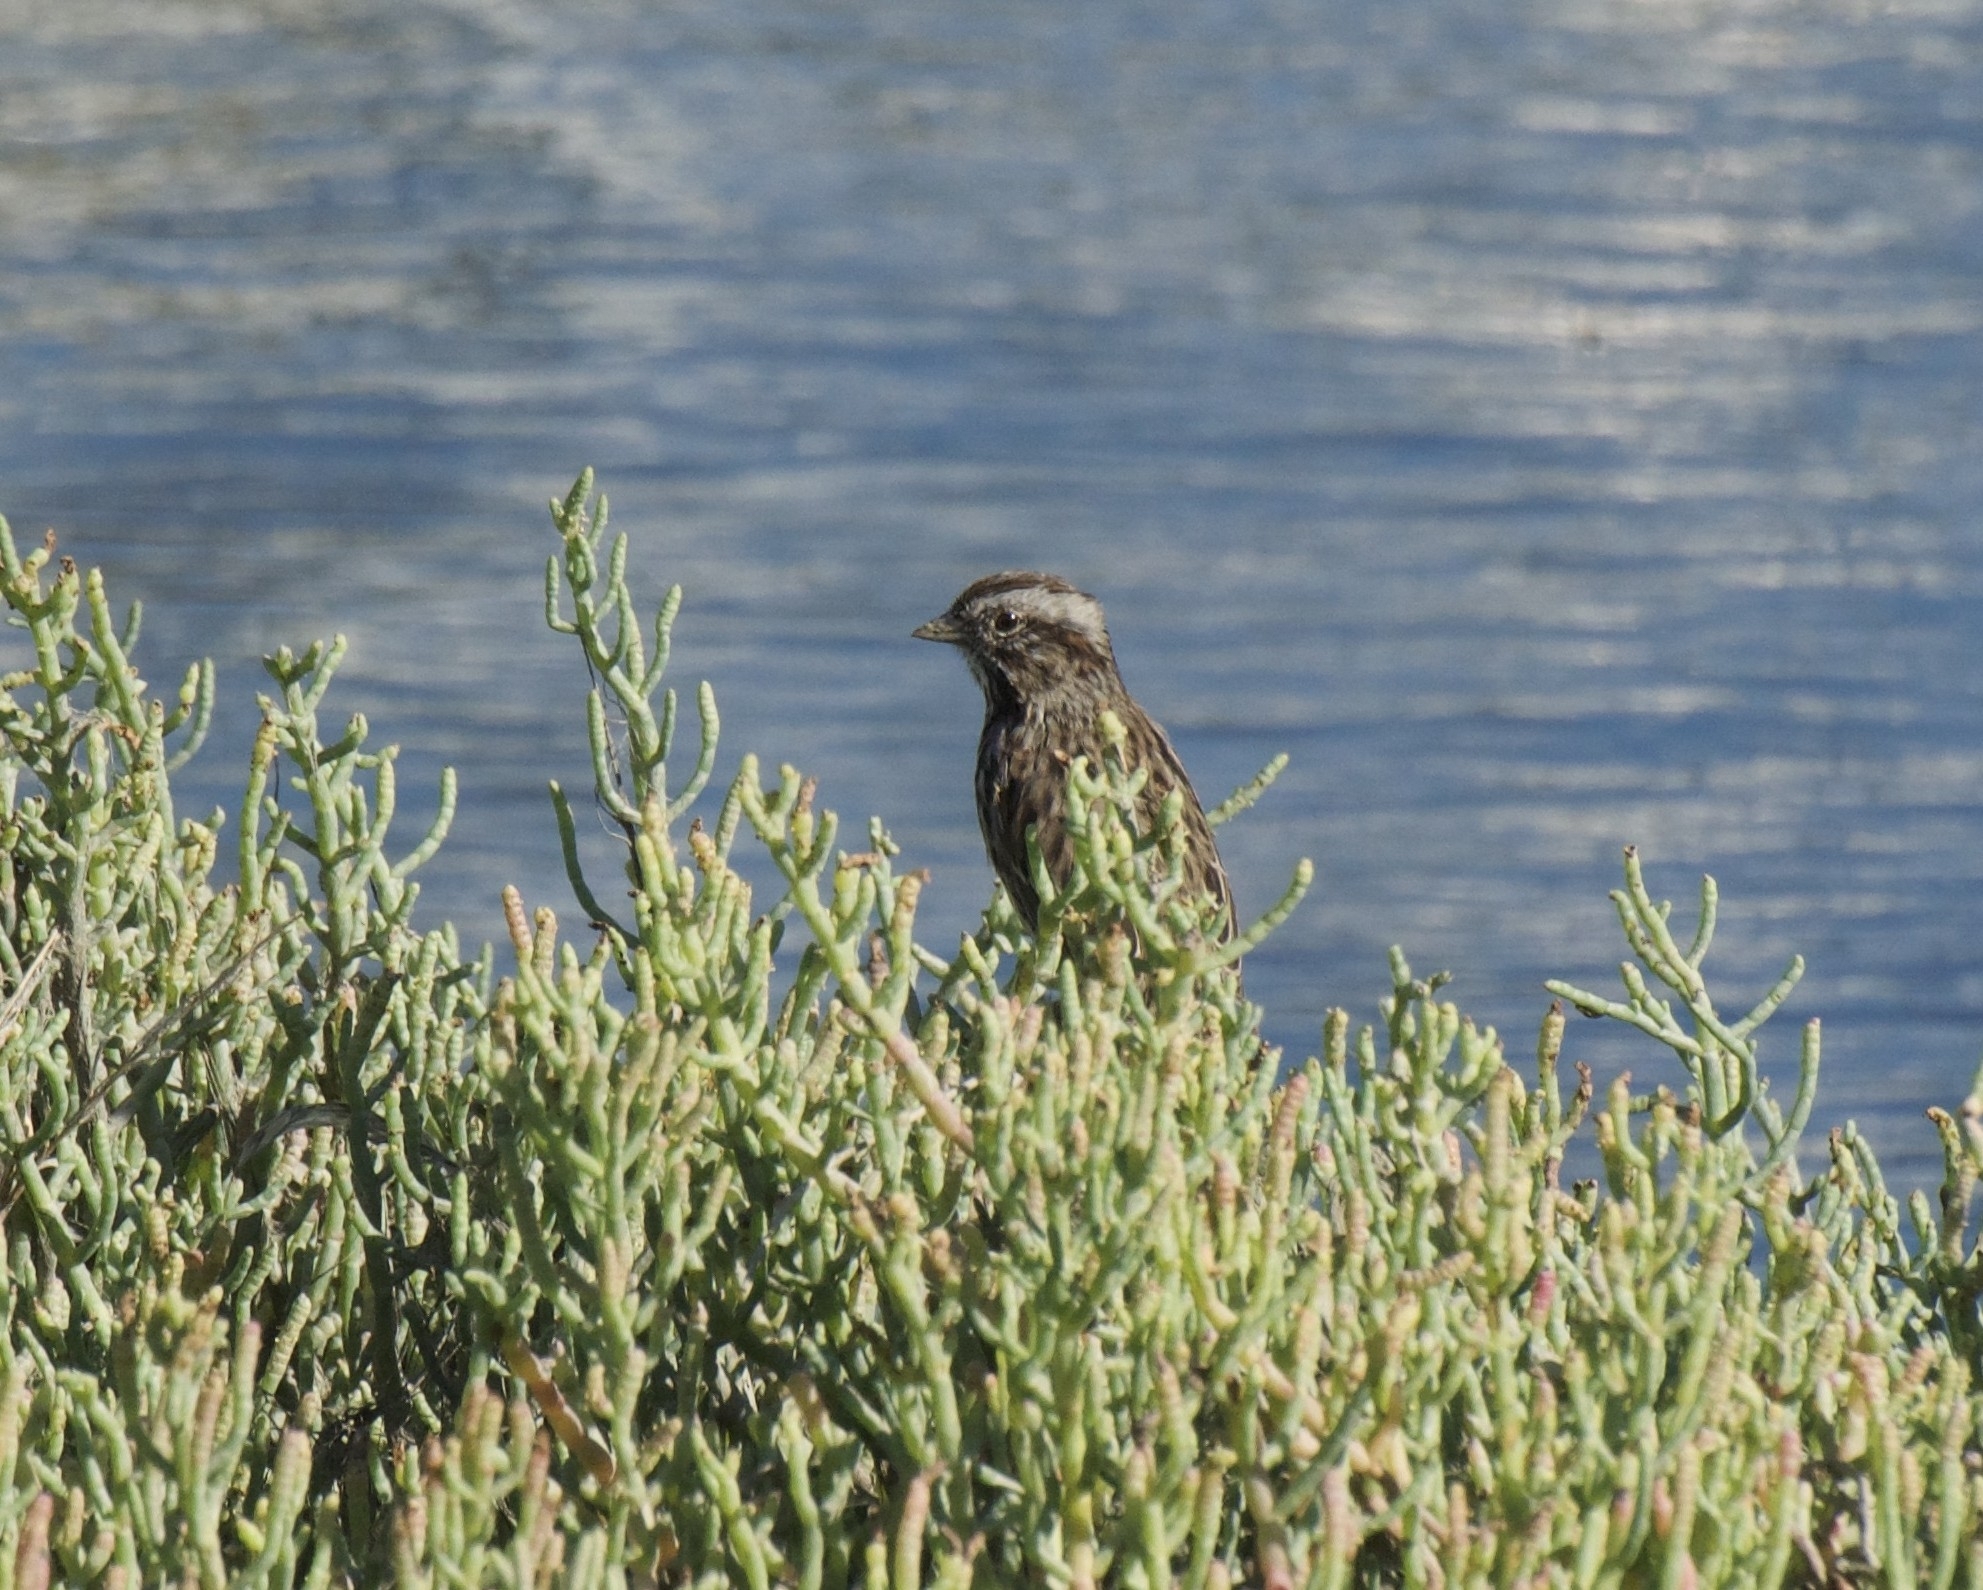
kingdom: Animalia
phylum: Chordata
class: Aves
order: Passeriformes
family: Passerellidae
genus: Melospiza
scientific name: Melospiza melodia
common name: Song sparrow
